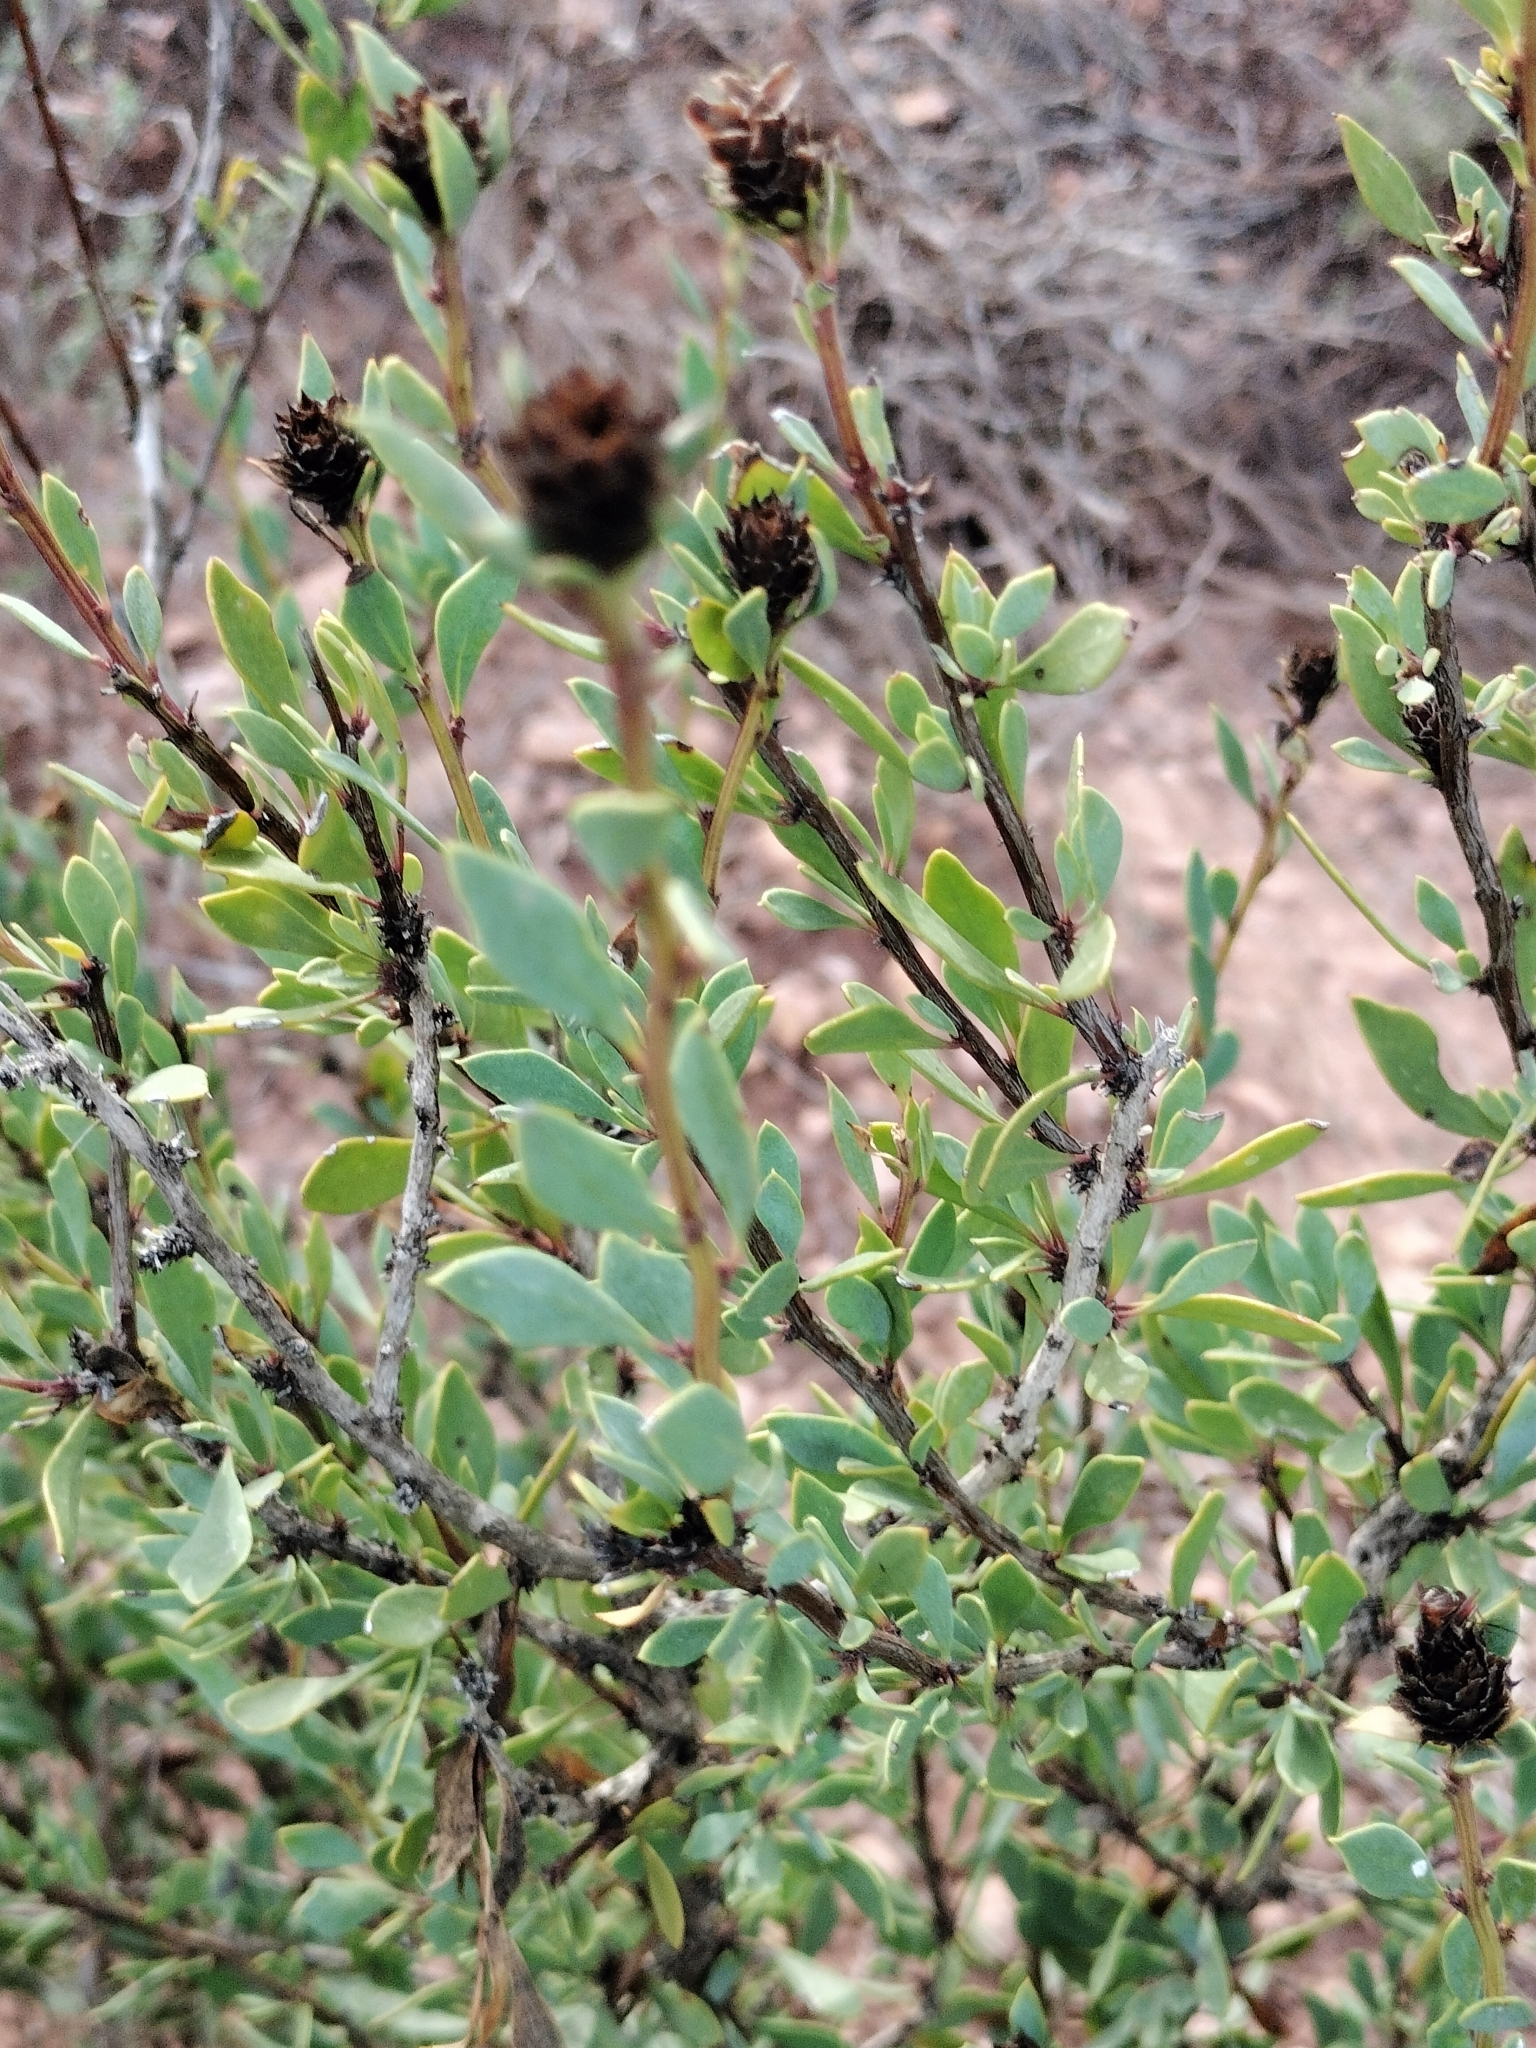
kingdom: Plantae
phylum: Tracheophyta
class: Magnoliopsida
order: Lamiales
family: Plantaginaceae
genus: Globularia
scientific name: Globularia alypum
